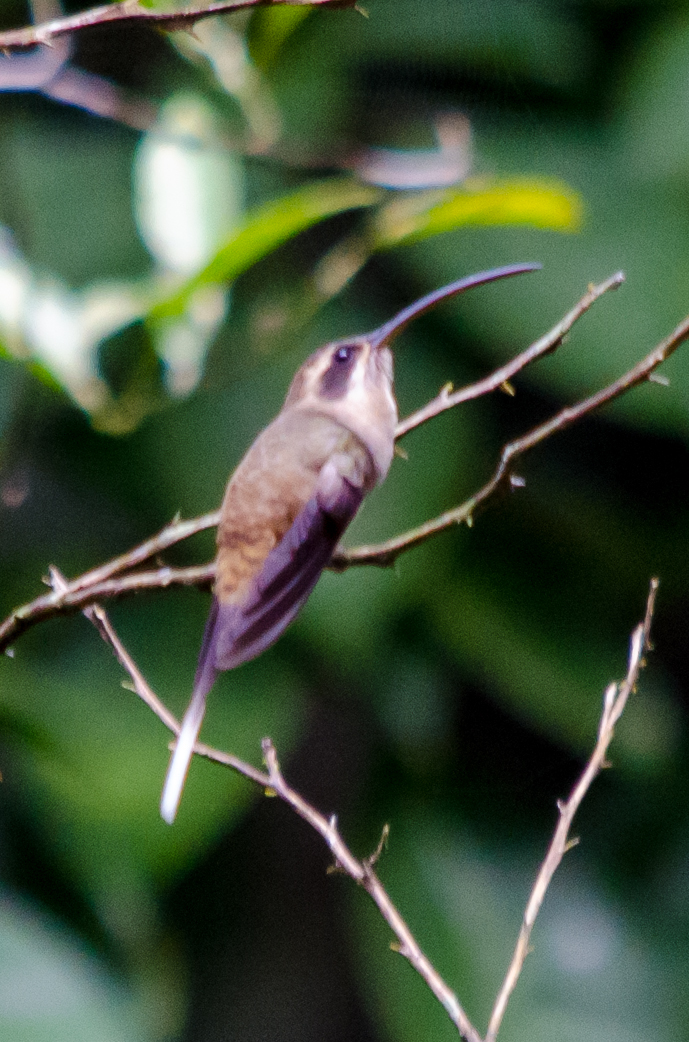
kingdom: Animalia
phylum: Chordata
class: Aves
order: Apodiformes
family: Trochilidae
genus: Phaethornis
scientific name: Phaethornis longirostris
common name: Long-billed hermit
